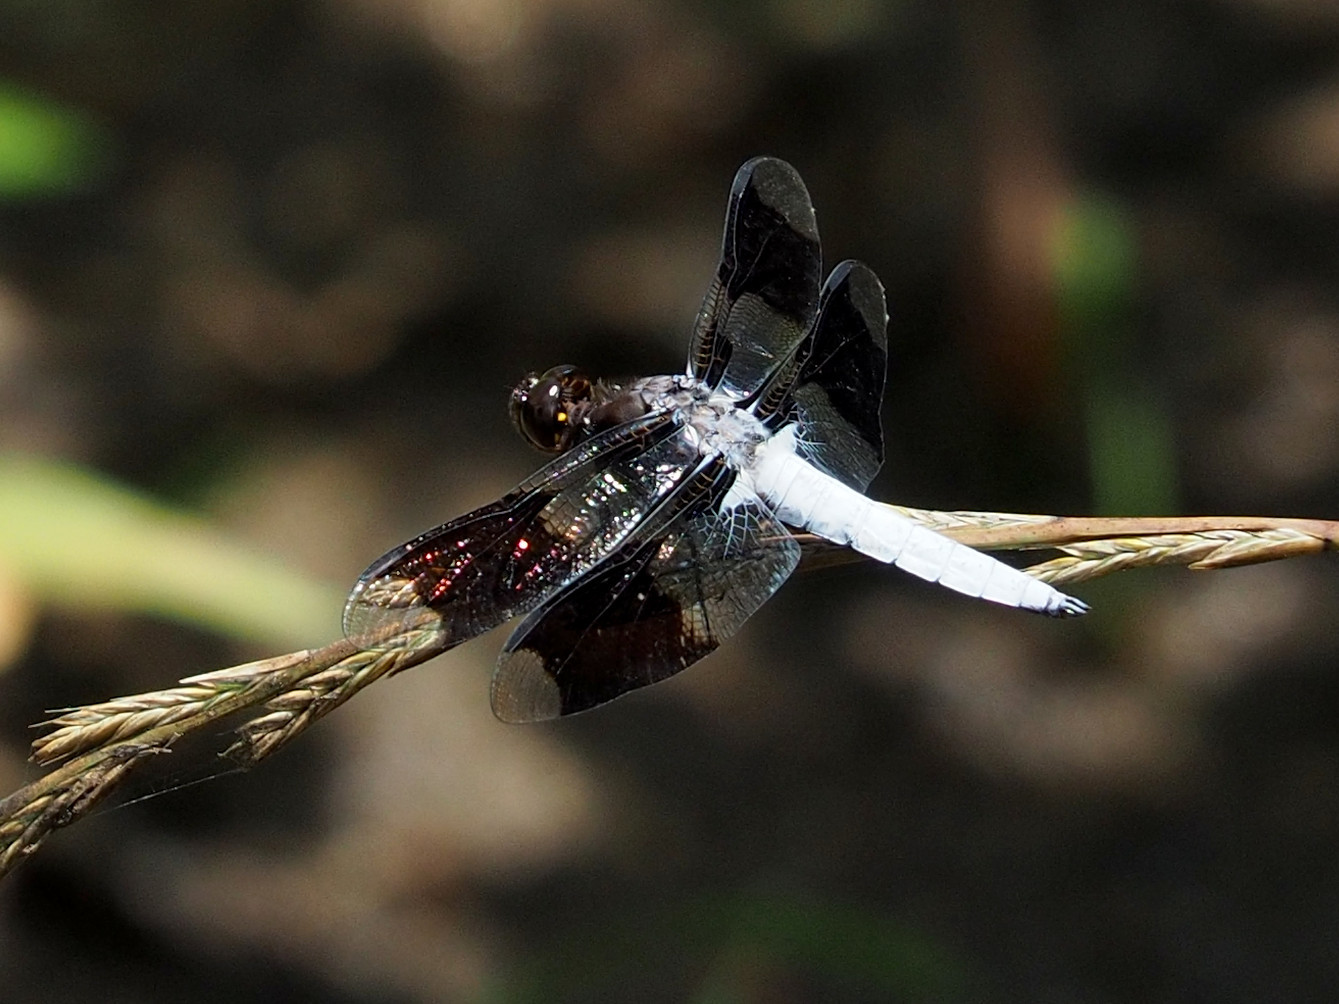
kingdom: Animalia
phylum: Arthropoda
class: Insecta
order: Odonata
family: Libellulidae
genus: Plathemis
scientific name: Plathemis lydia
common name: Common whitetail
